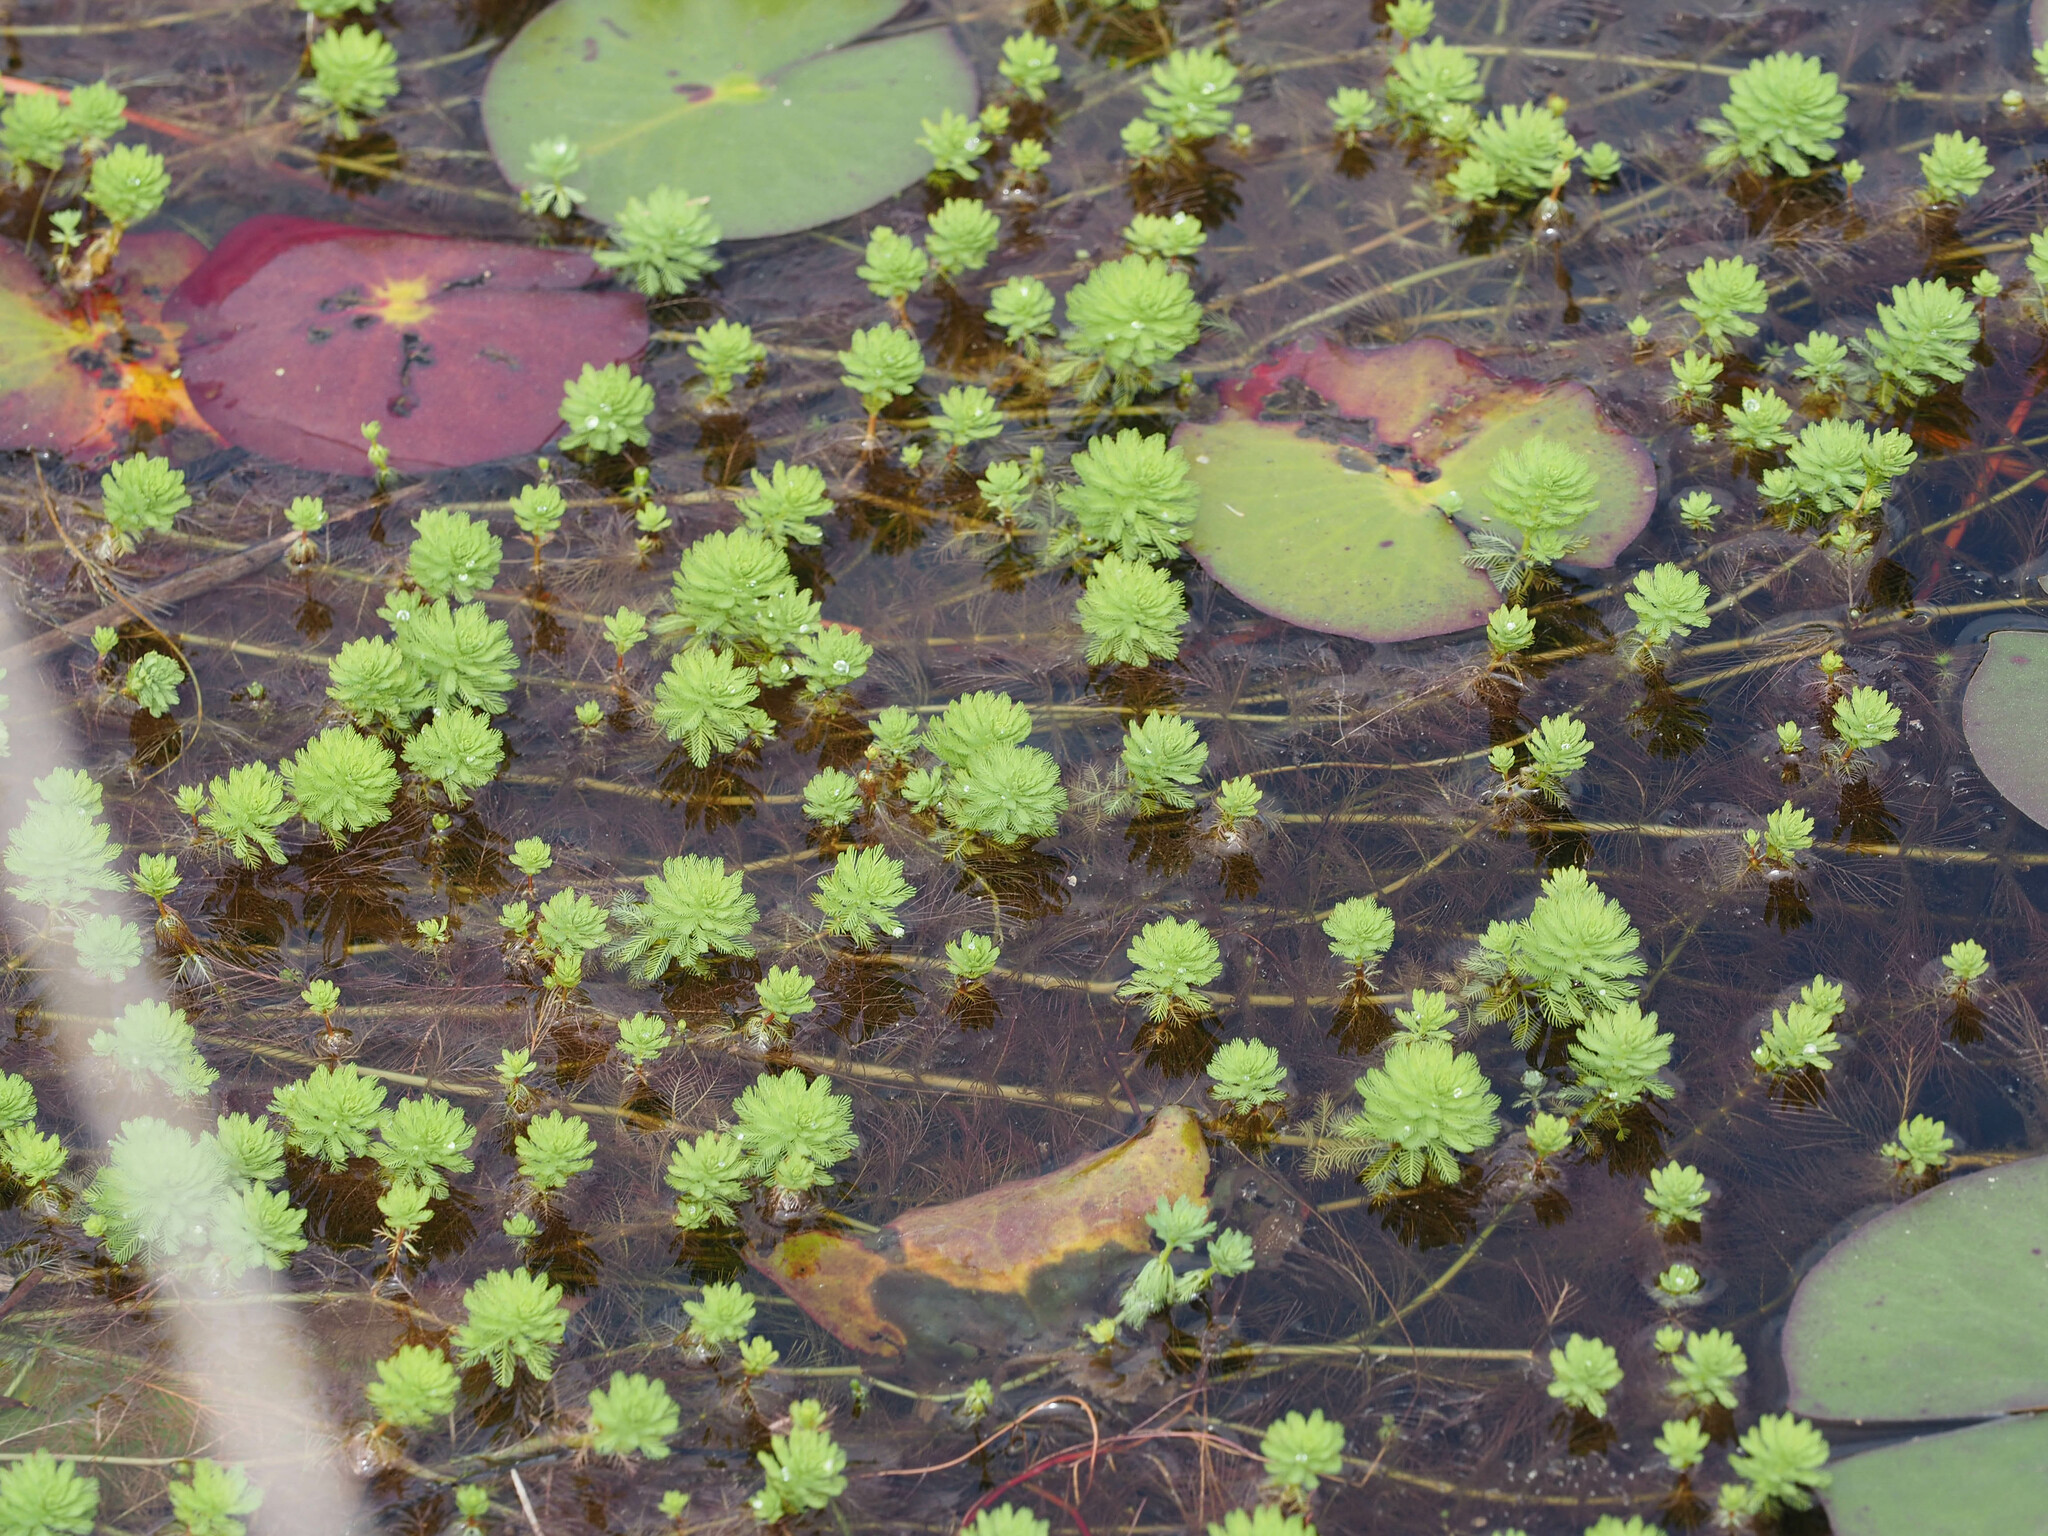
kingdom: Plantae
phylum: Tracheophyta
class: Magnoliopsida
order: Saxifragales
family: Haloragaceae
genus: Myriophyllum
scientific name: Myriophyllum aquaticum
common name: Parrot's feather
